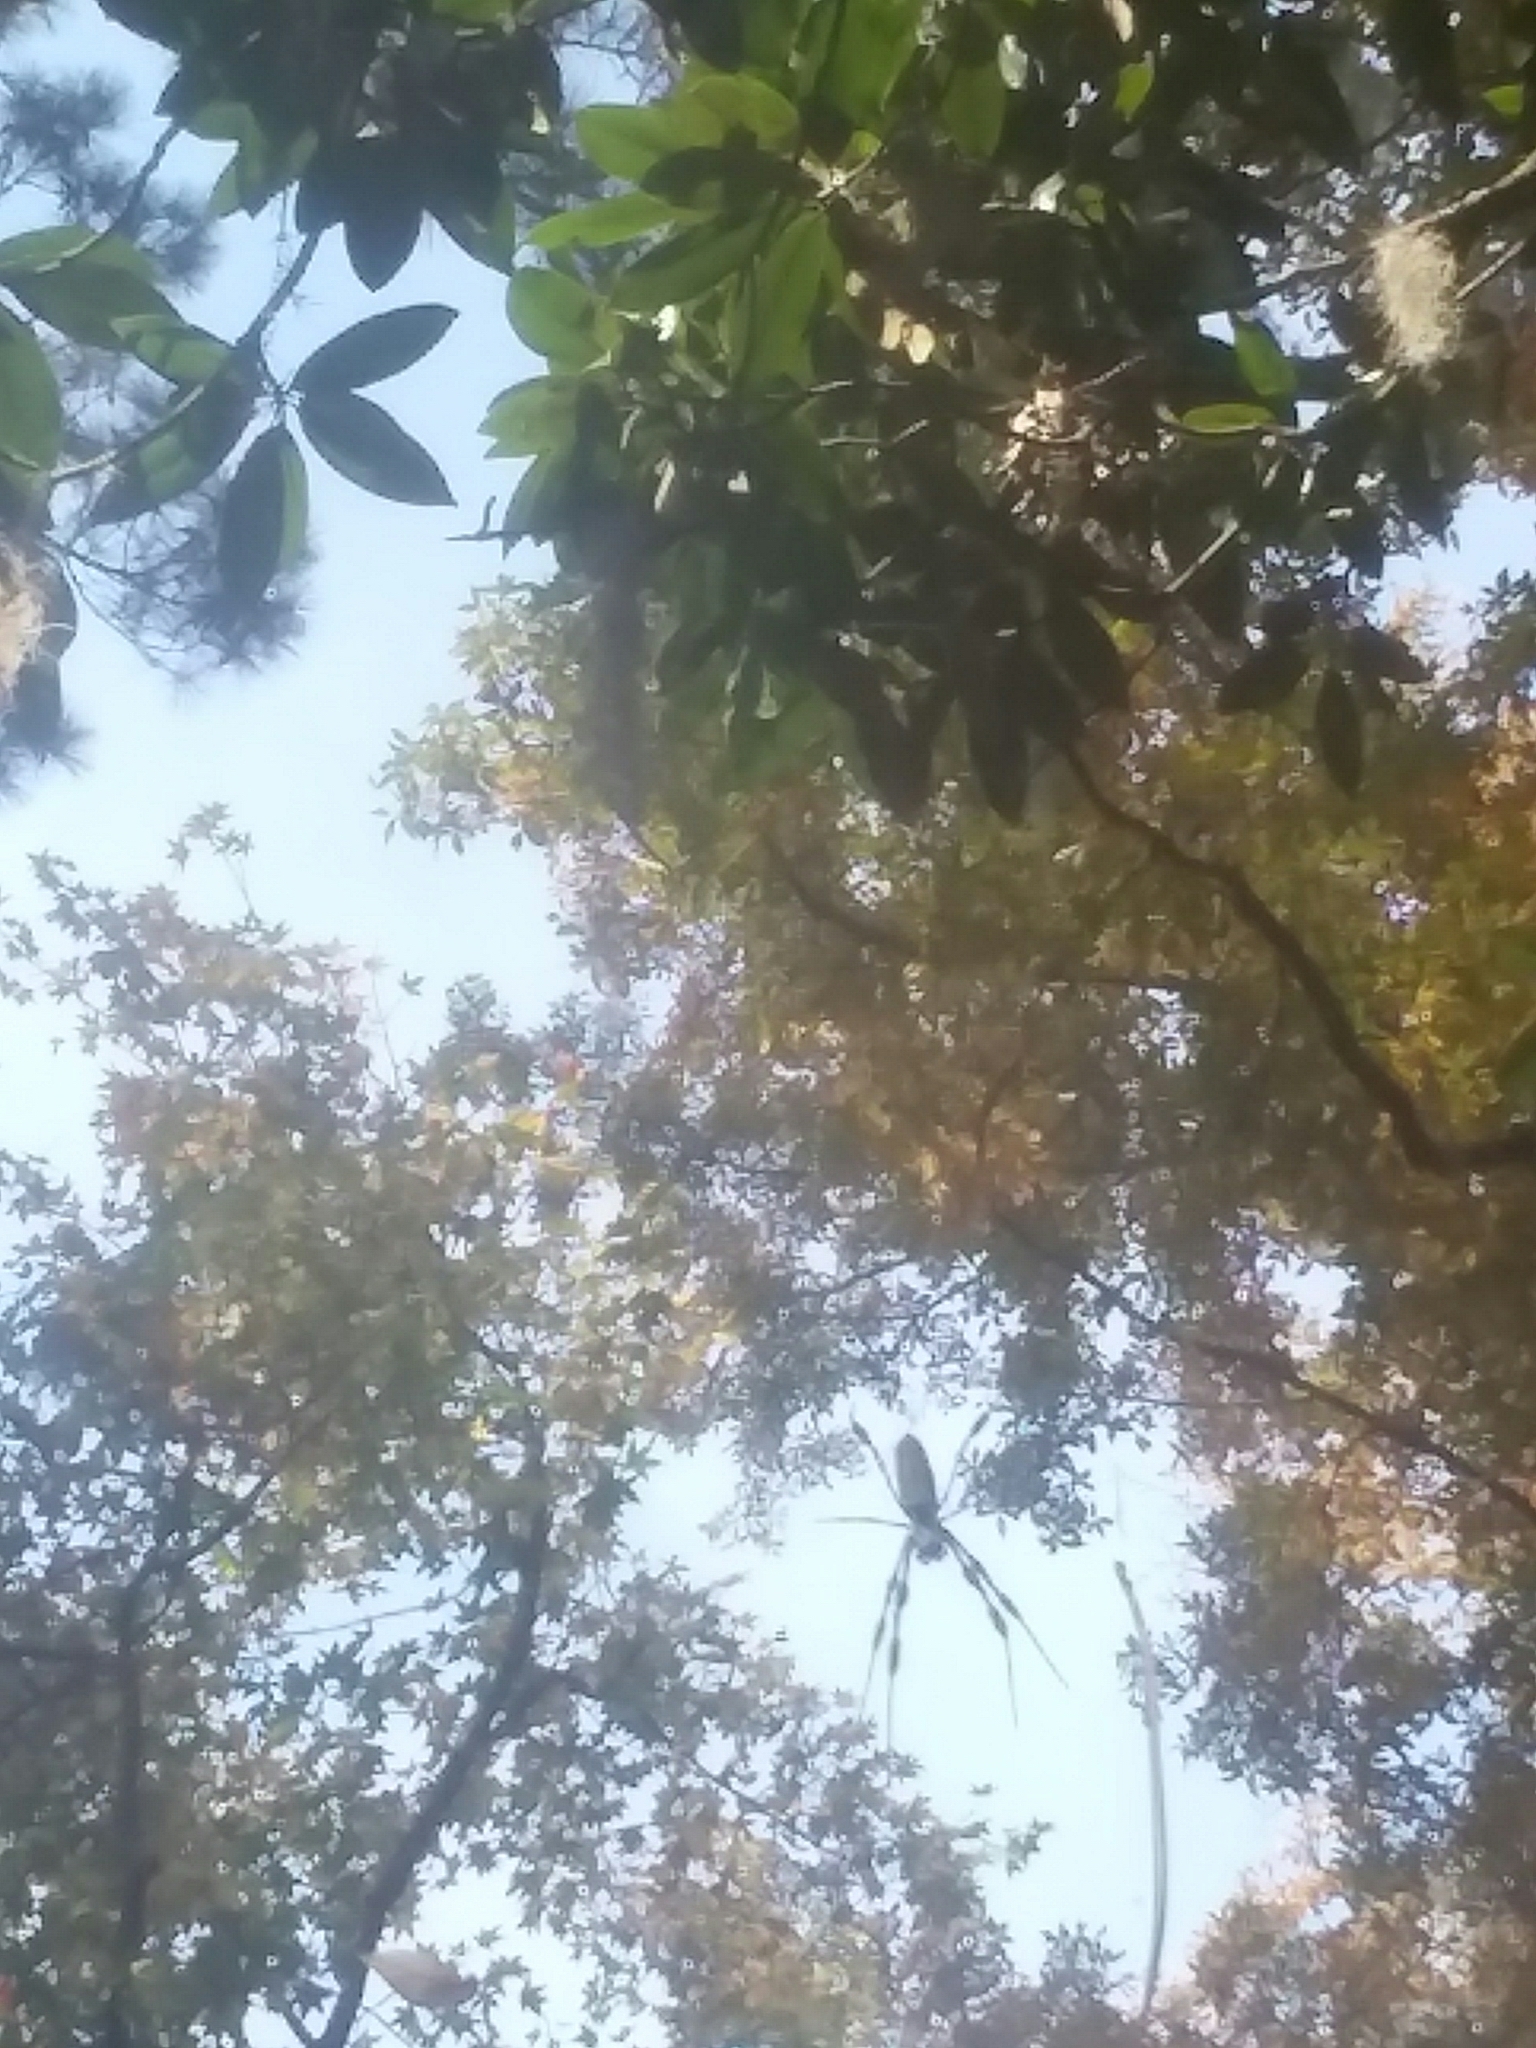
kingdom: Animalia
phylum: Arthropoda
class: Arachnida
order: Araneae
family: Araneidae
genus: Trichonephila
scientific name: Trichonephila clavipes
